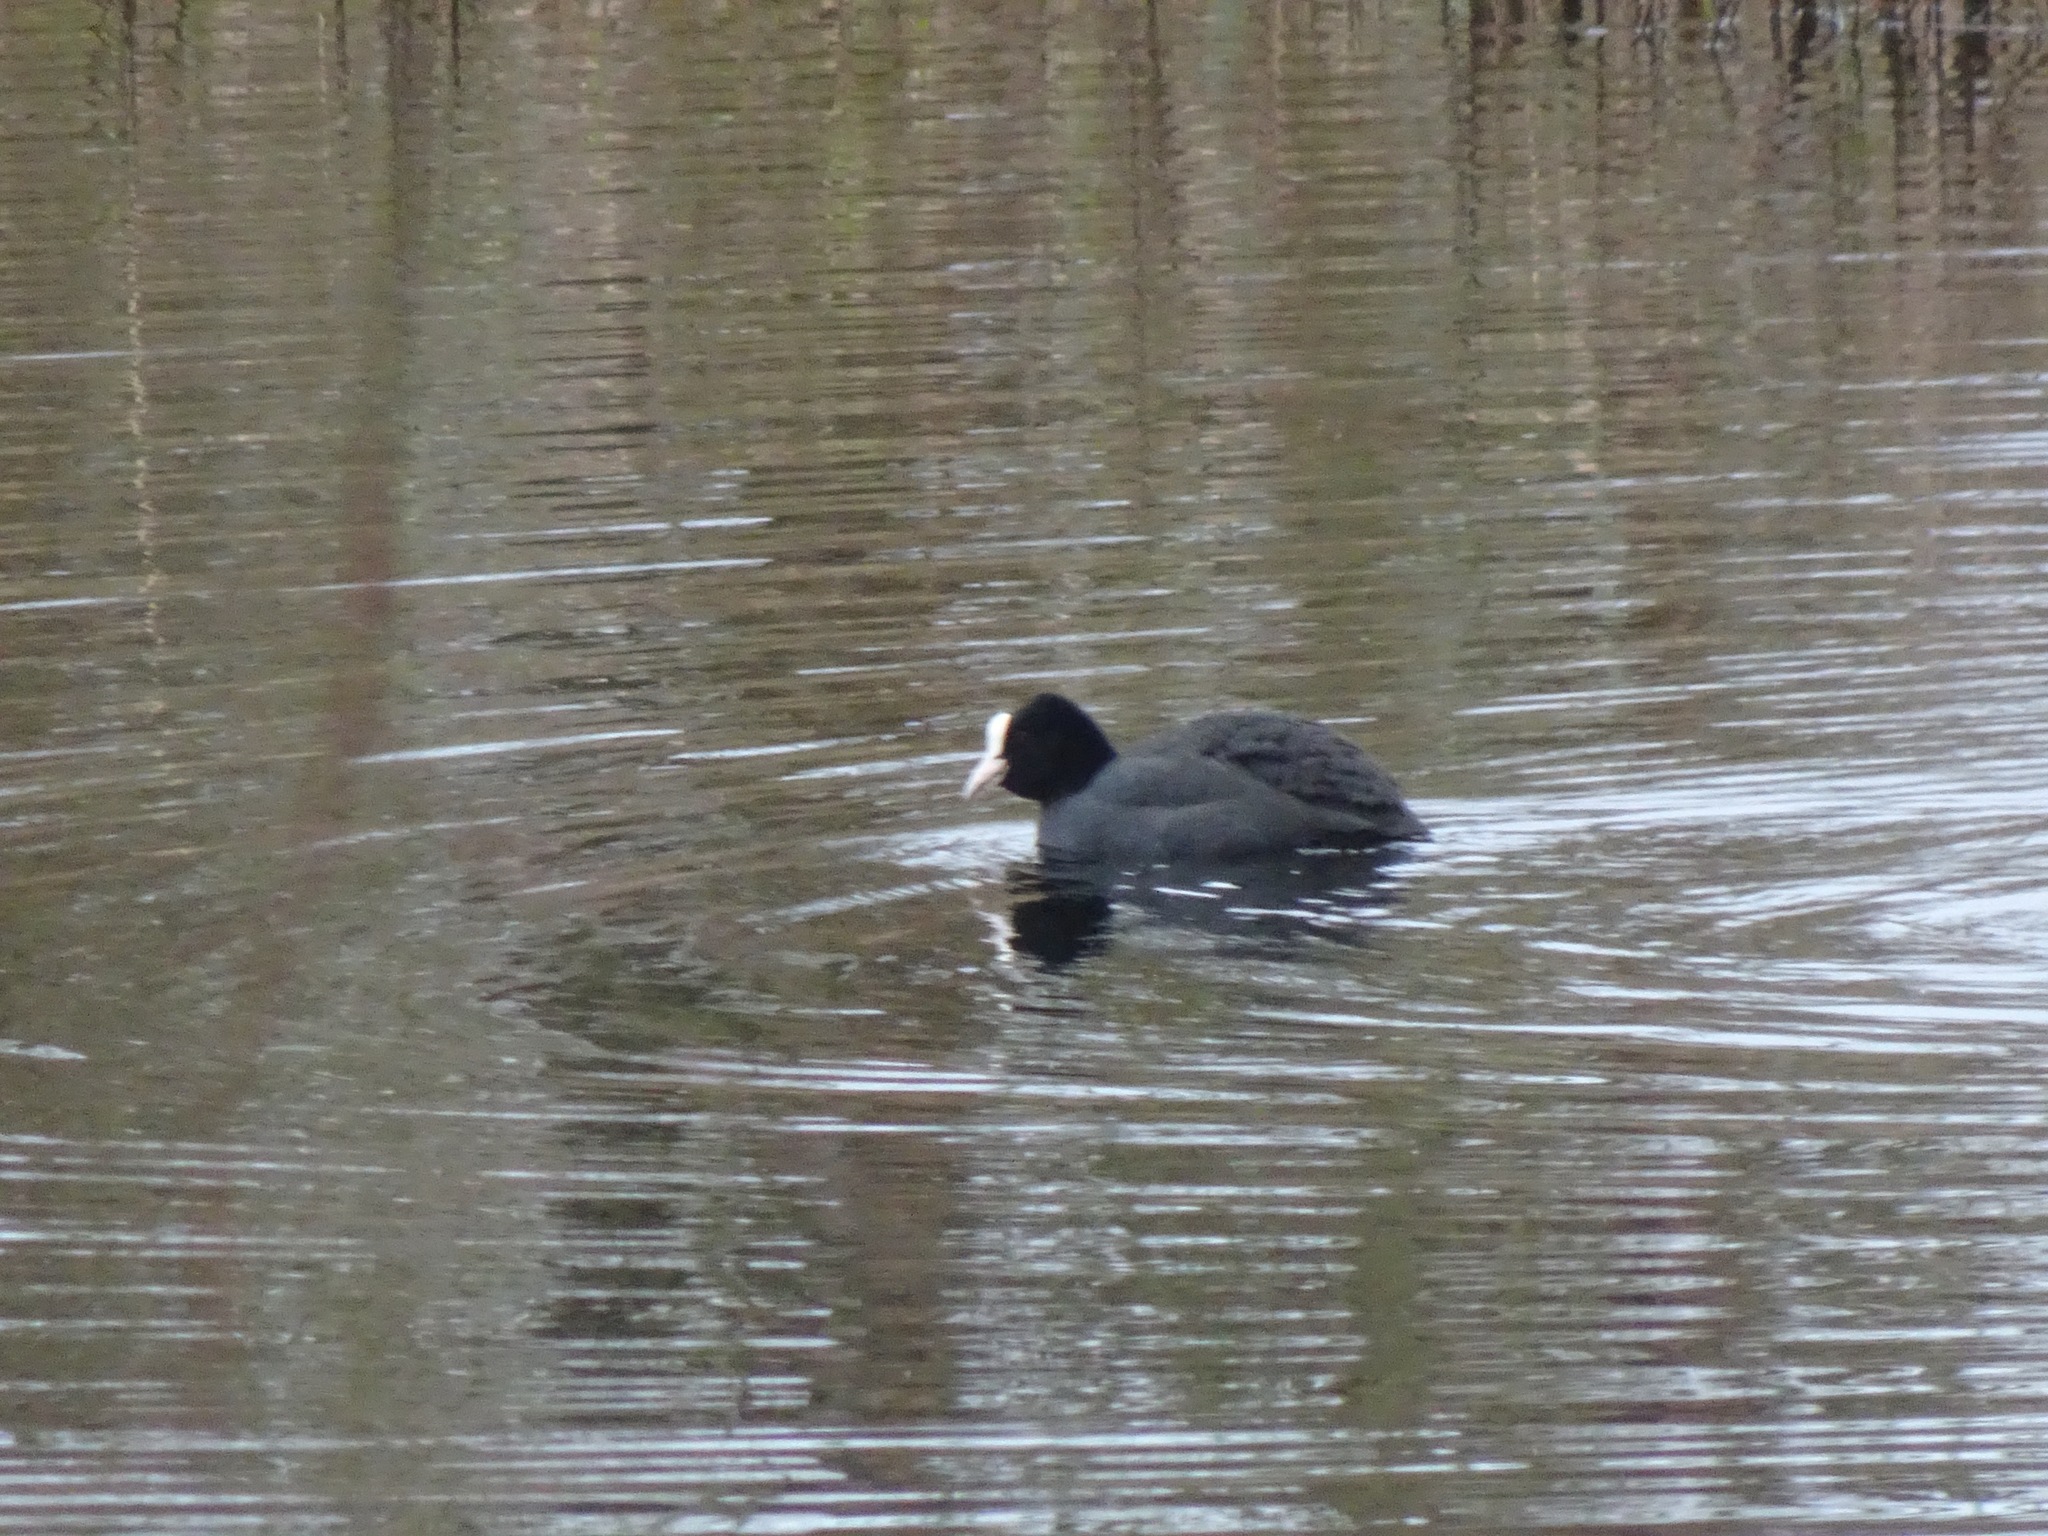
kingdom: Animalia
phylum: Chordata
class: Aves
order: Gruiformes
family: Rallidae
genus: Fulica
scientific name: Fulica atra
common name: Eurasian coot
